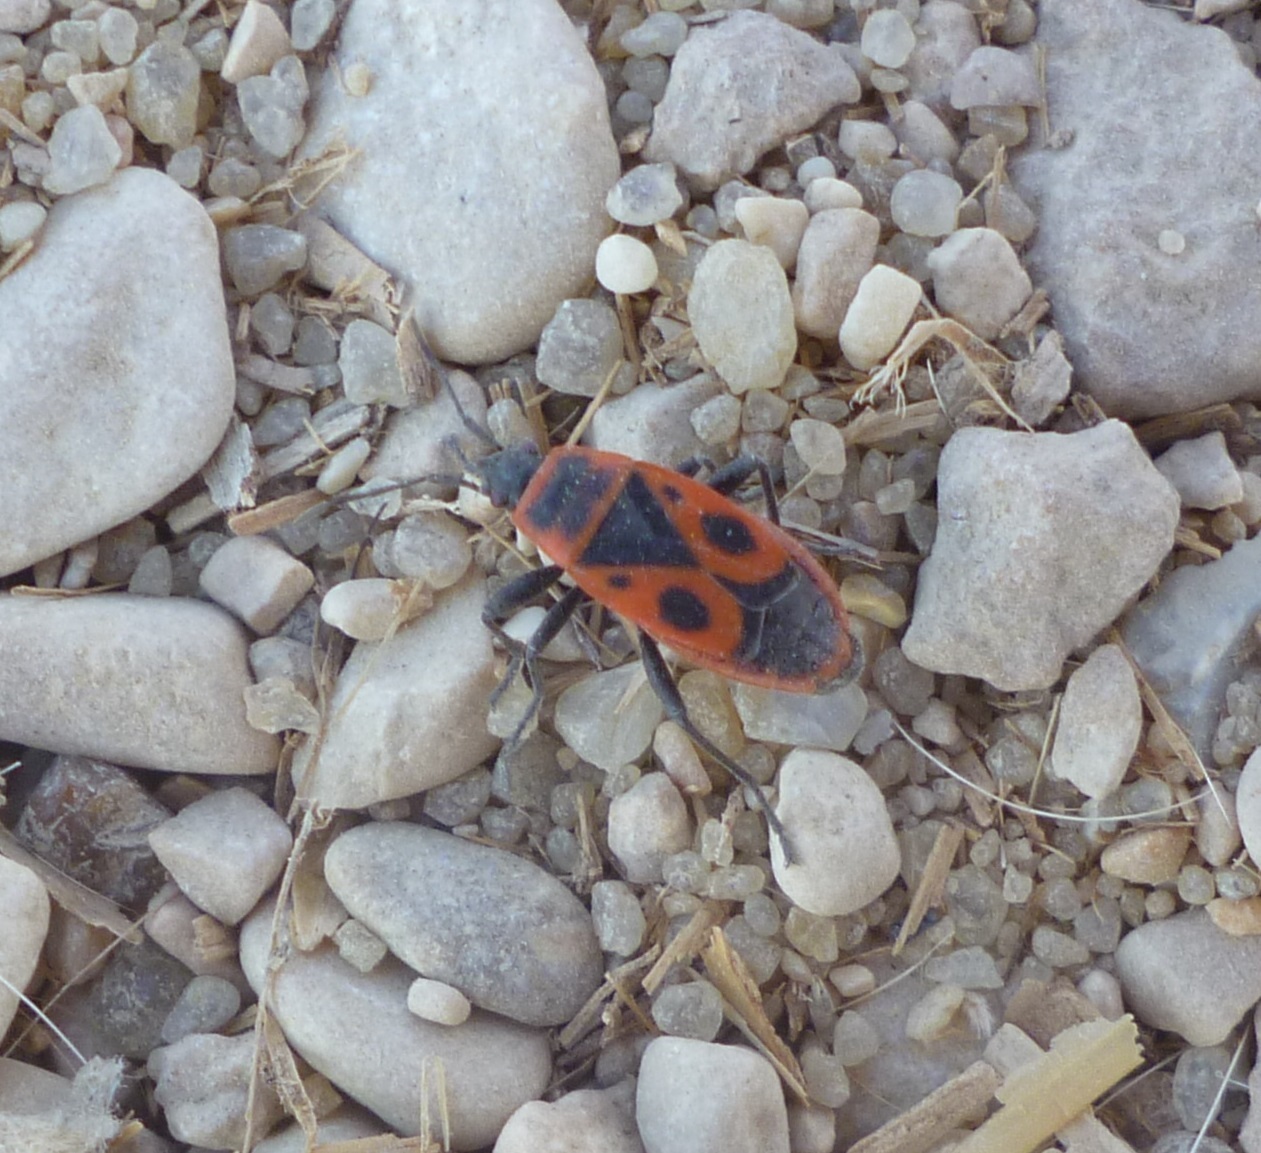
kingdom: Animalia
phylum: Arthropoda
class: Insecta
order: Hemiptera
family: Pyrrhocoridae
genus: Pyrrhocoris
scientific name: Pyrrhocoris apterus
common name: Firebug
